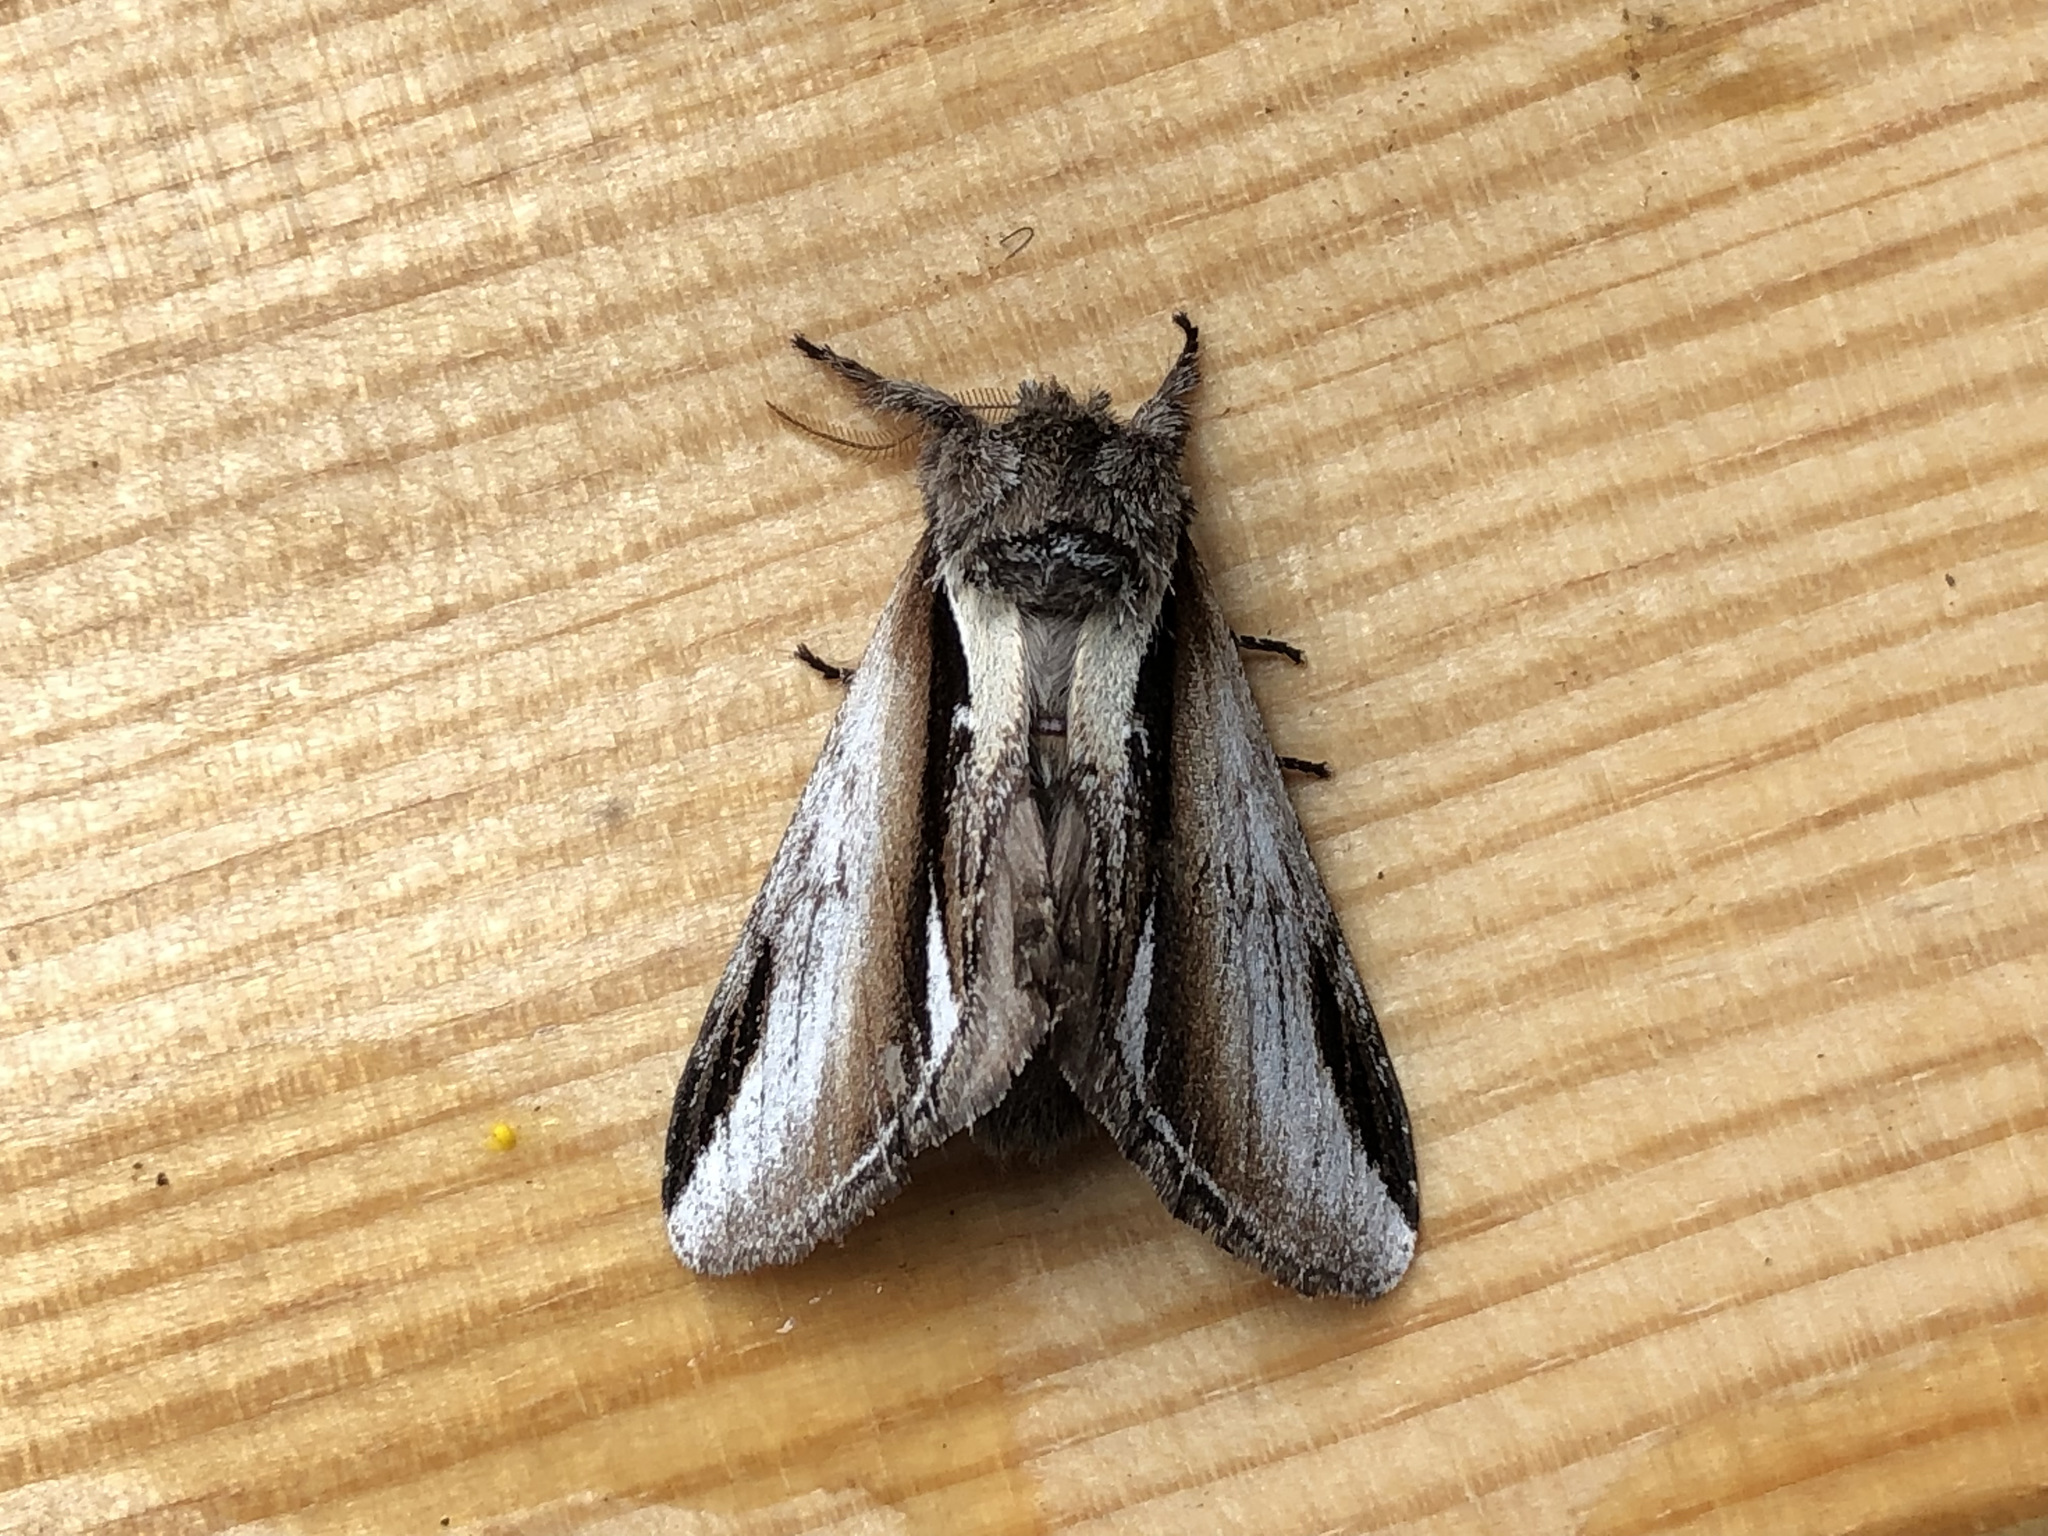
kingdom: Animalia
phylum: Arthropoda
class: Insecta
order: Lepidoptera
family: Notodontidae
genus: Pheosia
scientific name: Pheosia gnoma
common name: Lesser swallow prominent
